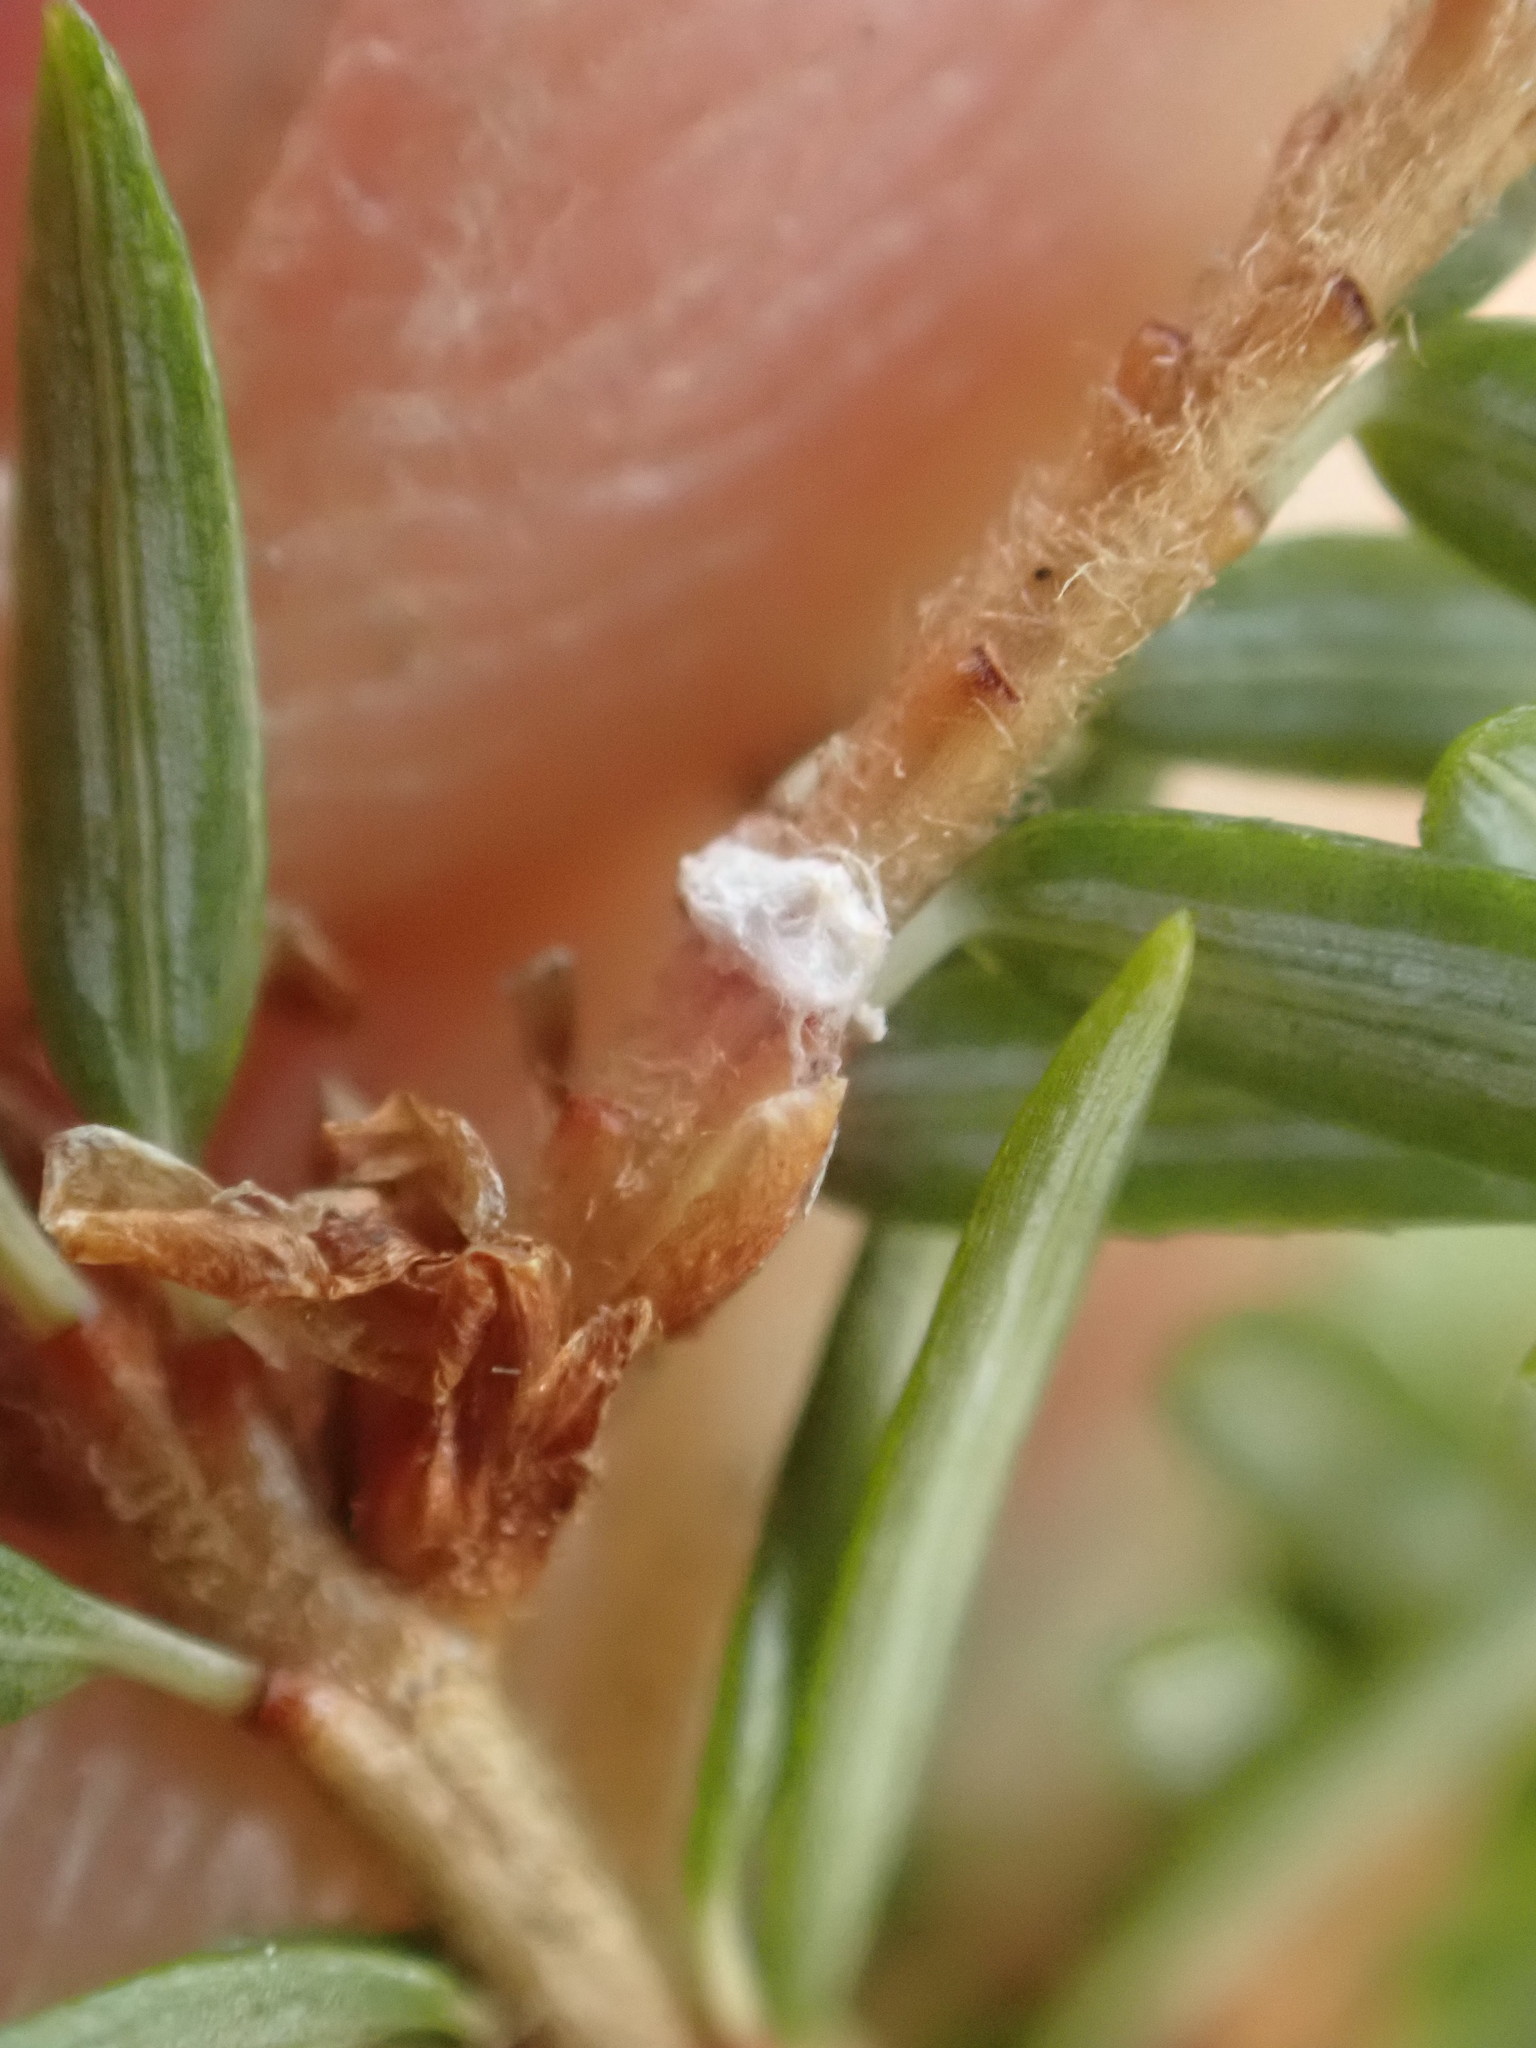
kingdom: Plantae
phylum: Tracheophyta
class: Pinopsida
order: Pinales
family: Pinaceae
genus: Tsuga
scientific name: Tsuga canadensis
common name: Eastern hemlock
